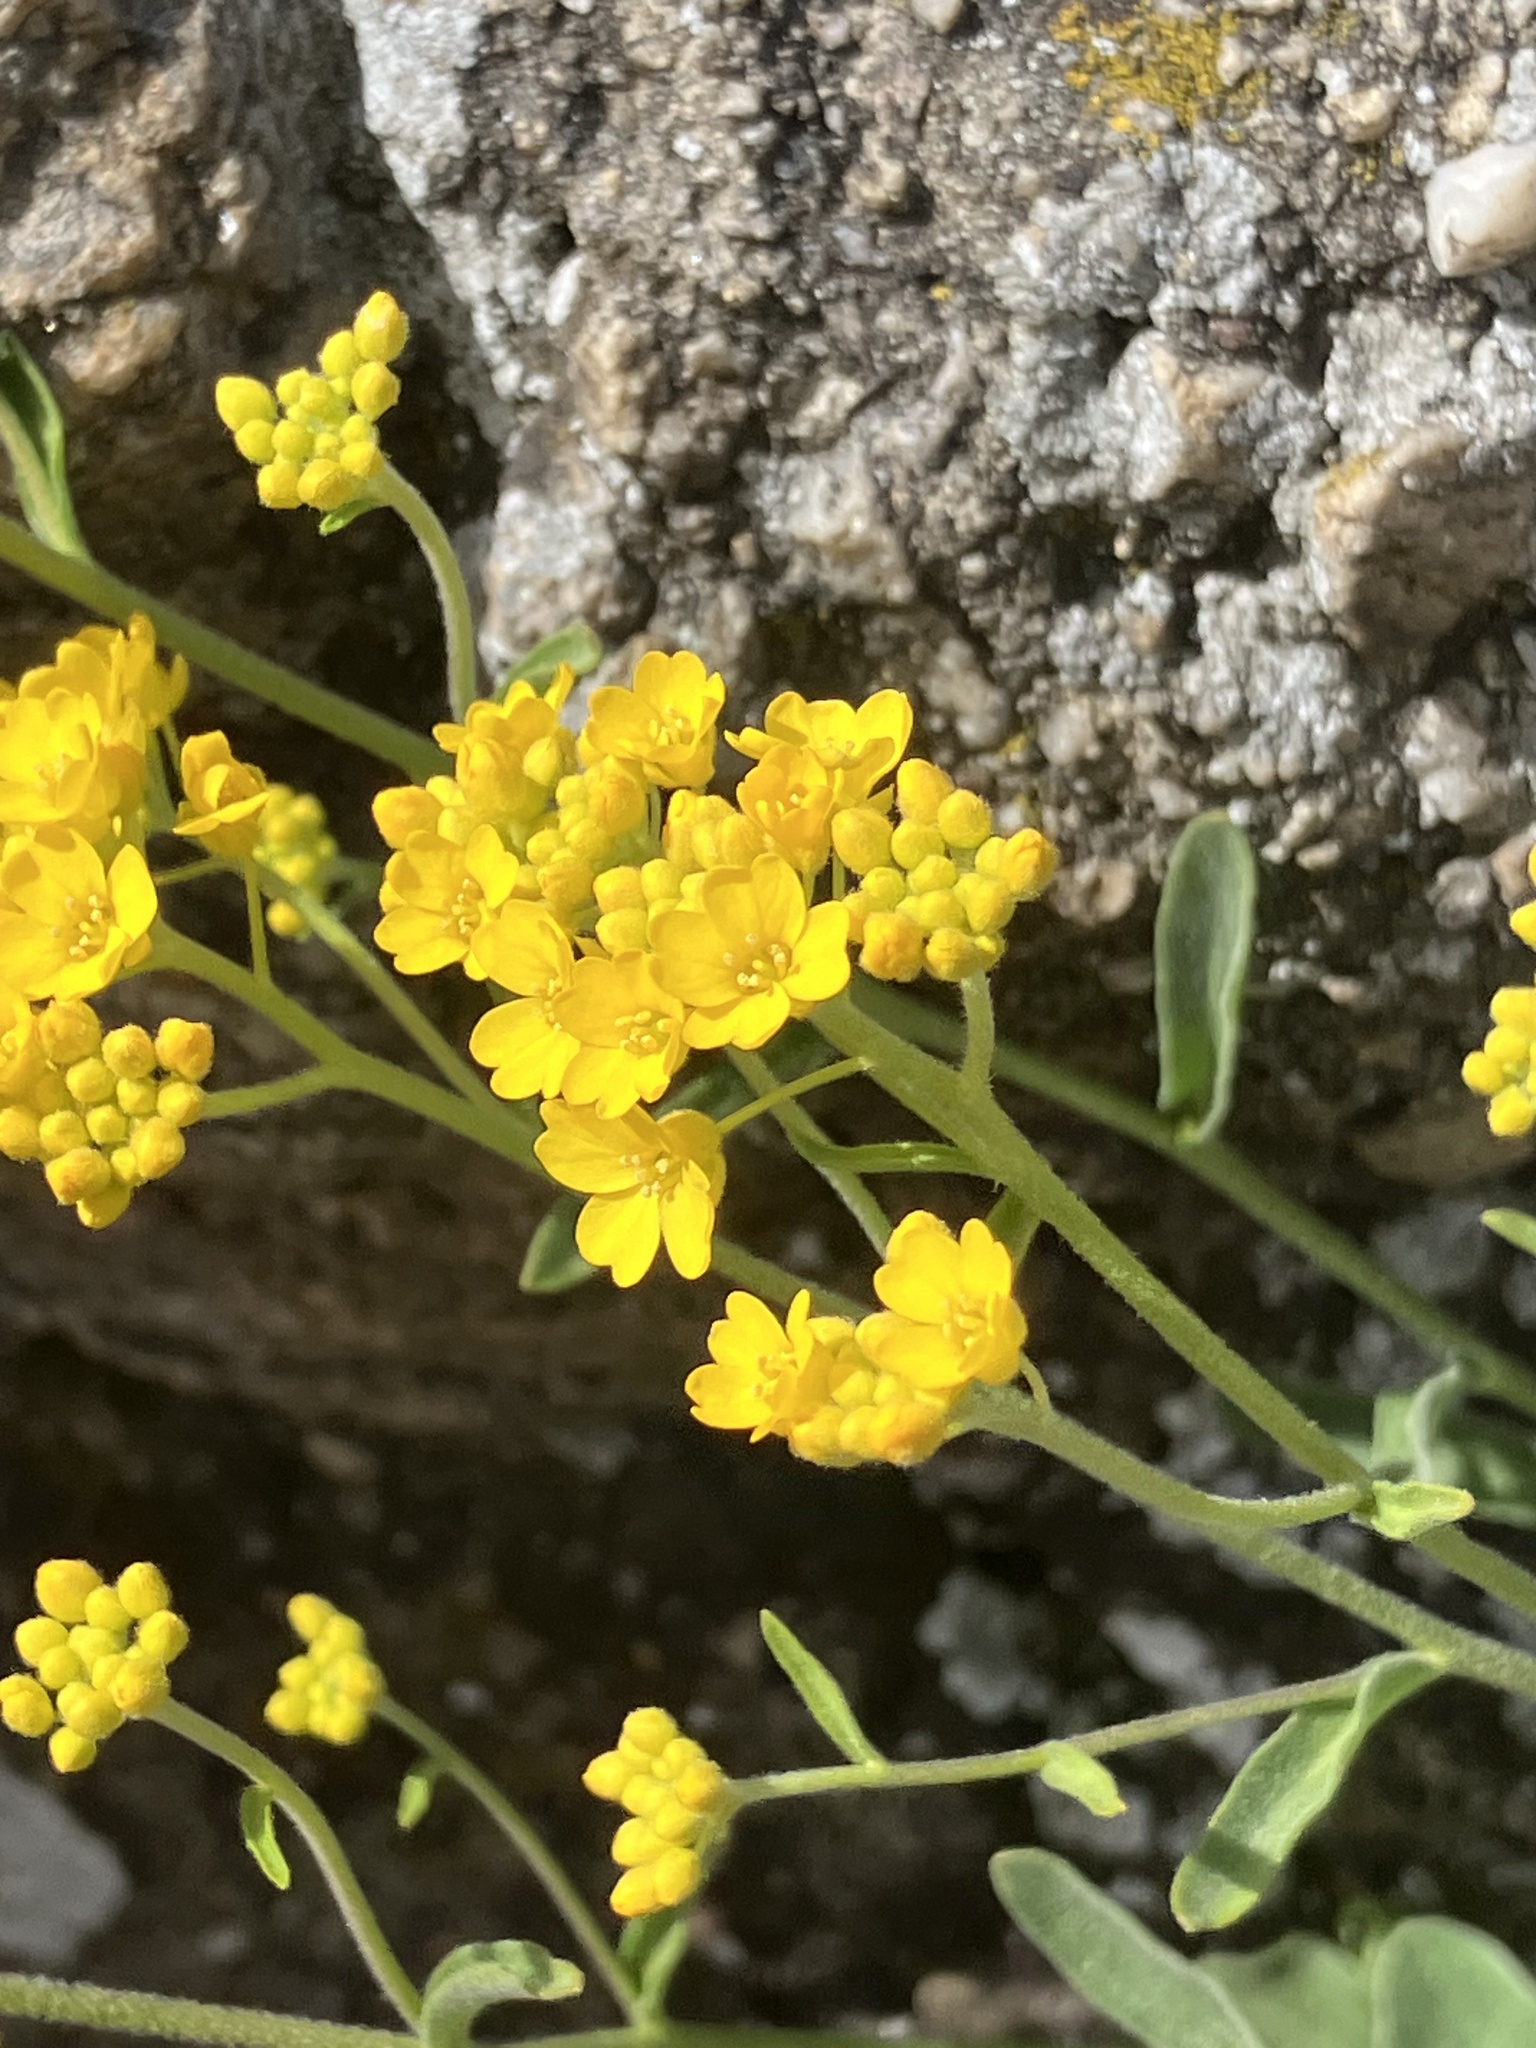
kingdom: Plantae
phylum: Tracheophyta
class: Magnoliopsida
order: Brassicales
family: Brassicaceae
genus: Aurinia
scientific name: Aurinia saxatilis
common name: Golden-tuft alyssum
